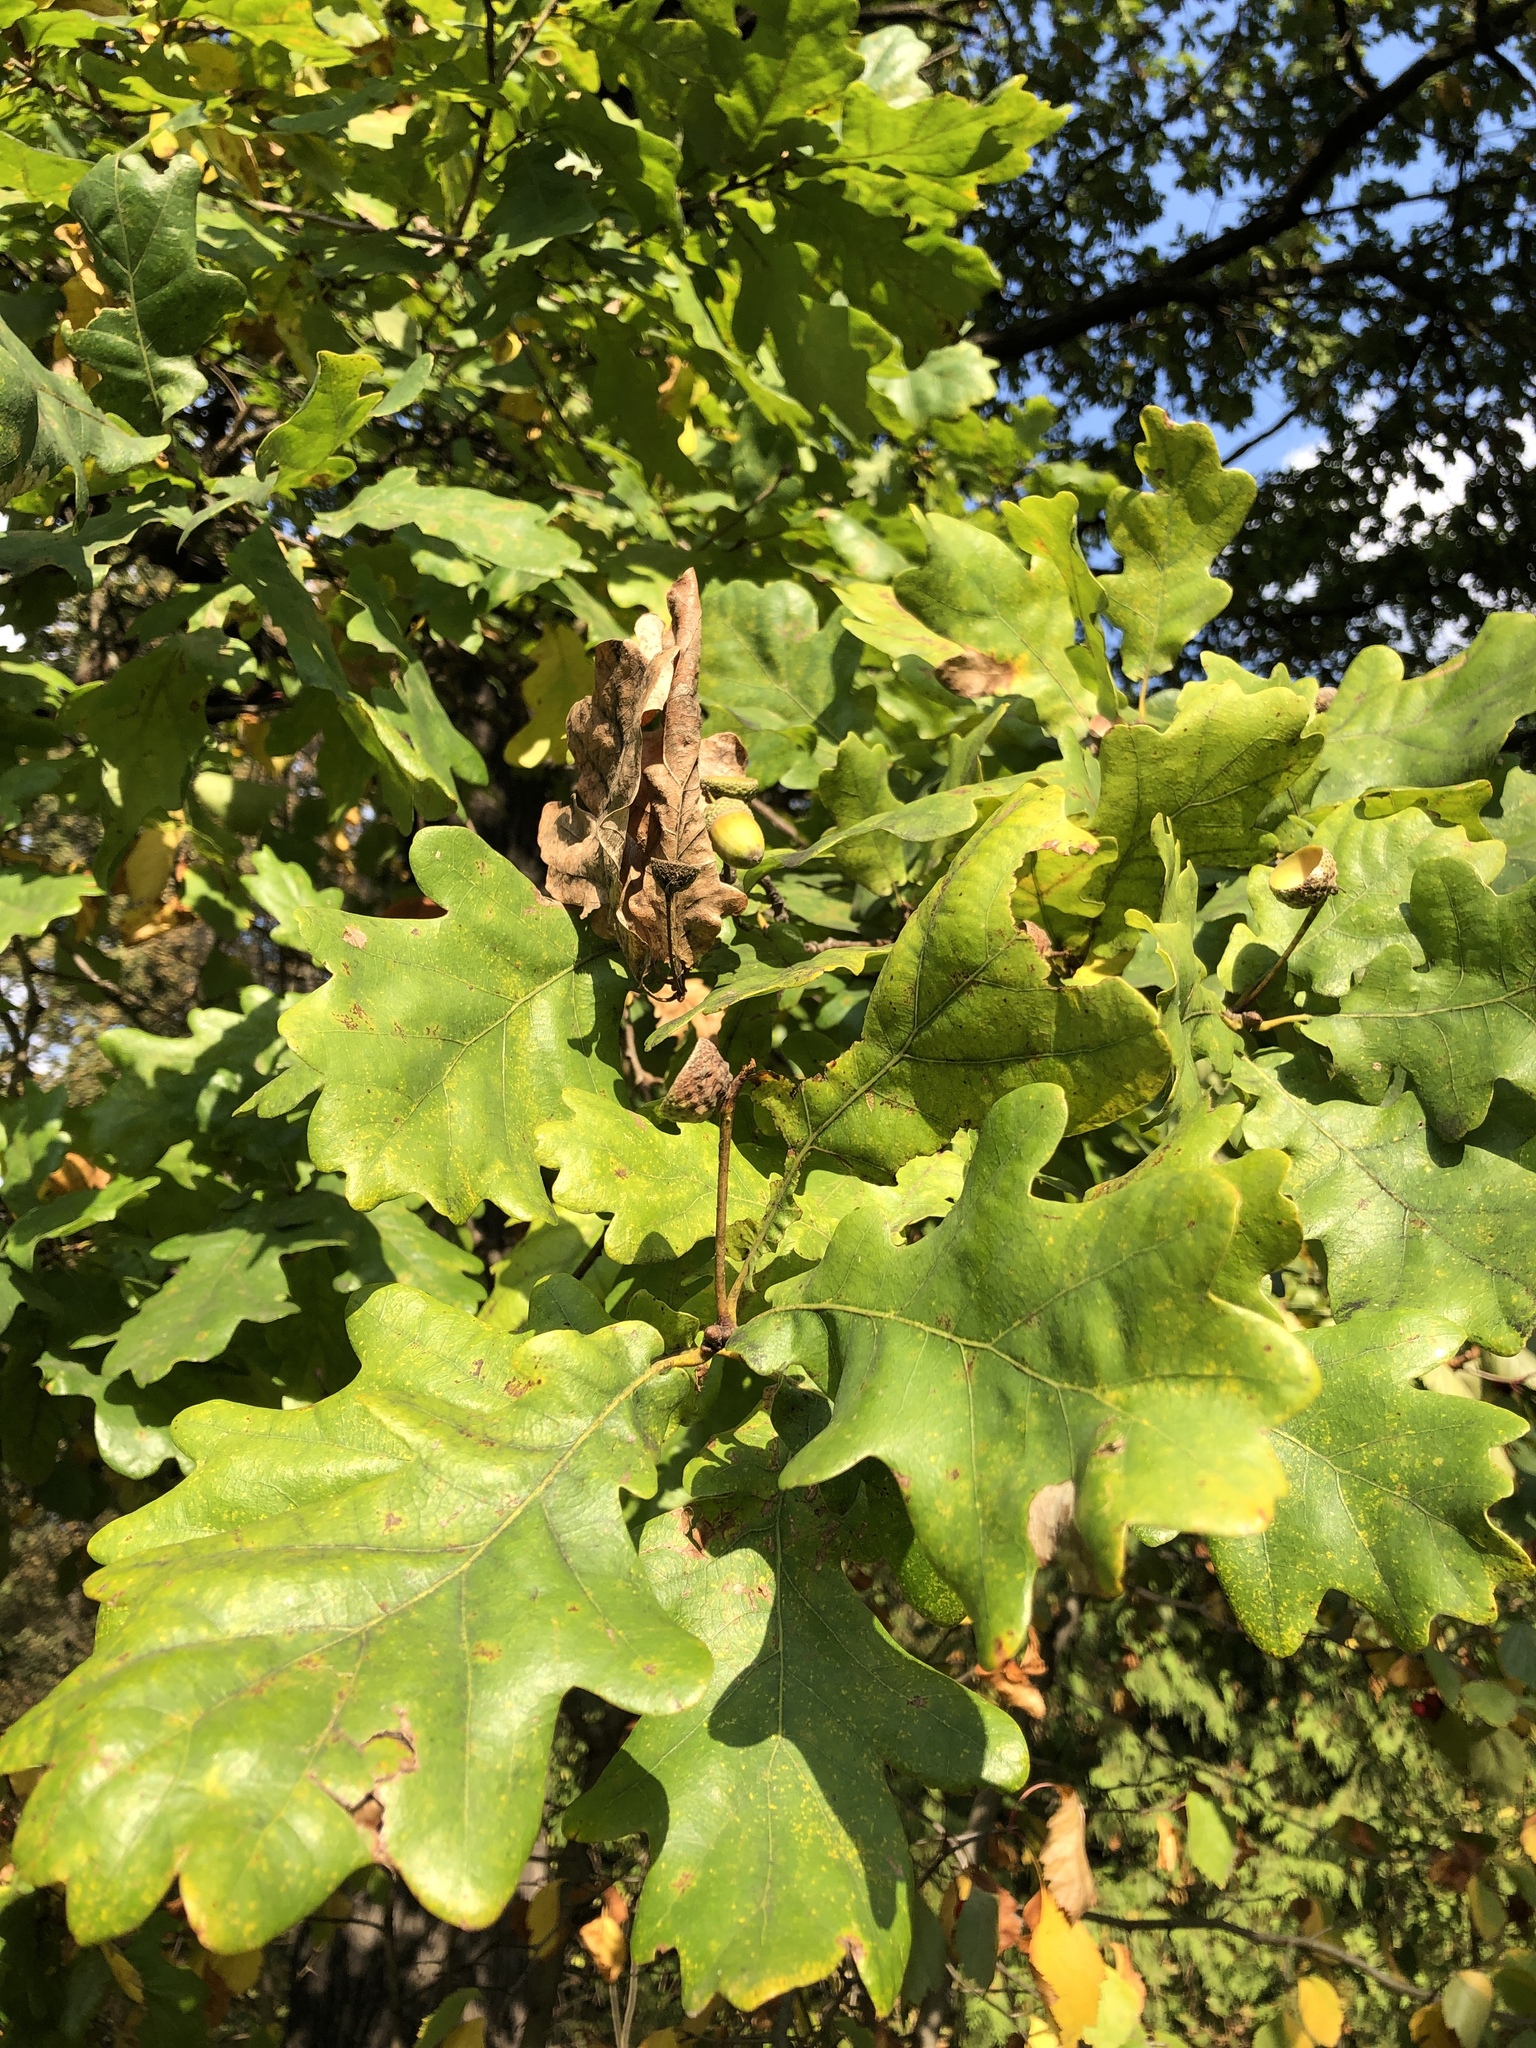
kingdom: Plantae
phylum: Tracheophyta
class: Magnoliopsida
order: Fagales
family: Fagaceae
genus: Quercus
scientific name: Quercus robur
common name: Pedunculate oak
